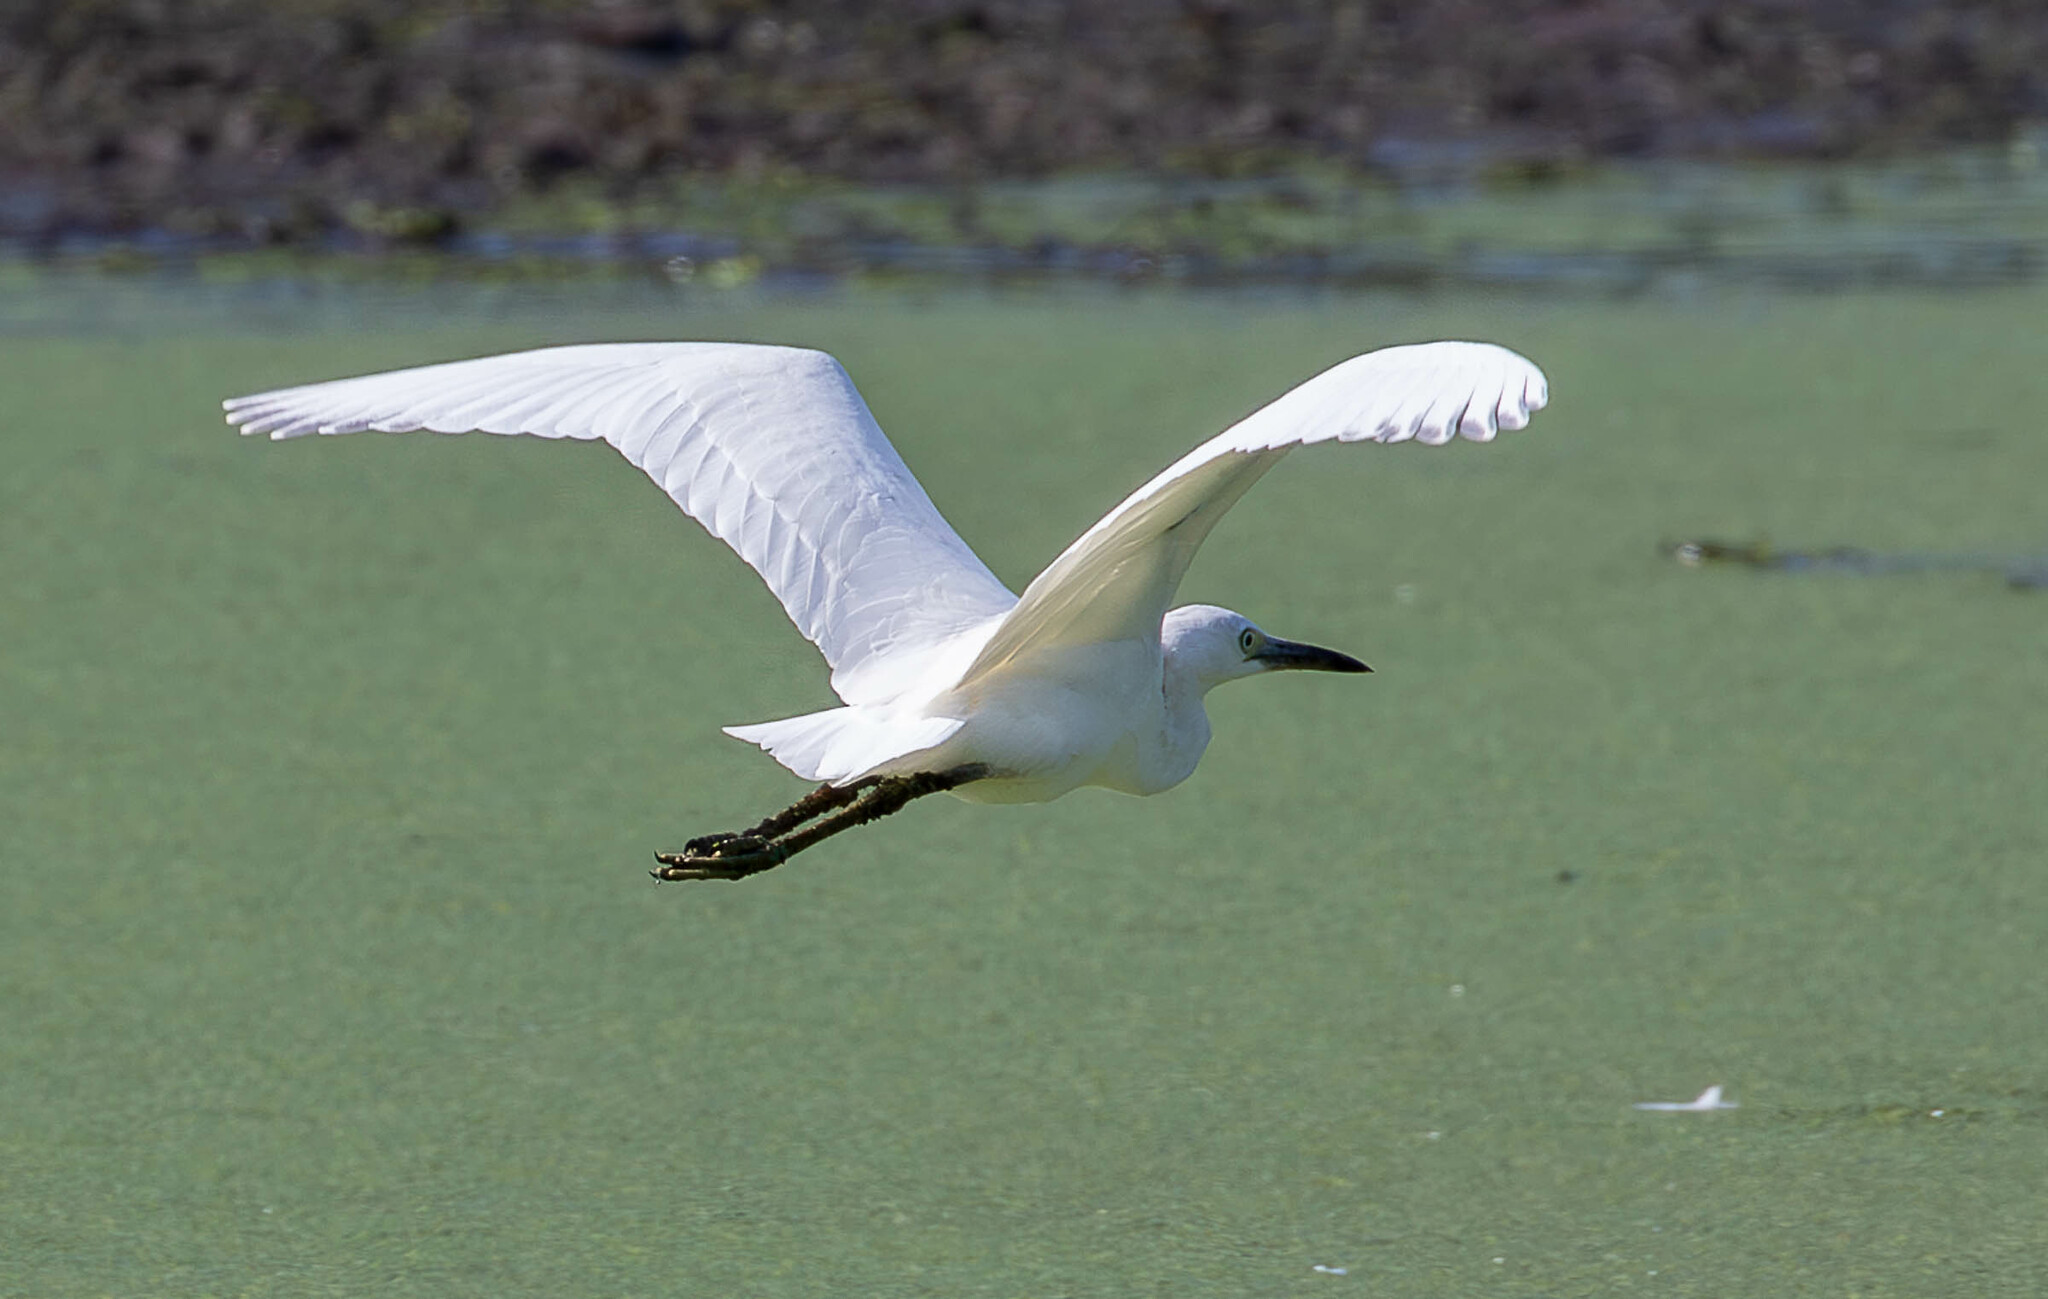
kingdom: Animalia
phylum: Chordata
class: Aves
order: Pelecaniformes
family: Ardeidae
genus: Egretta
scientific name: Egretta caerulea
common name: Little blue heron
